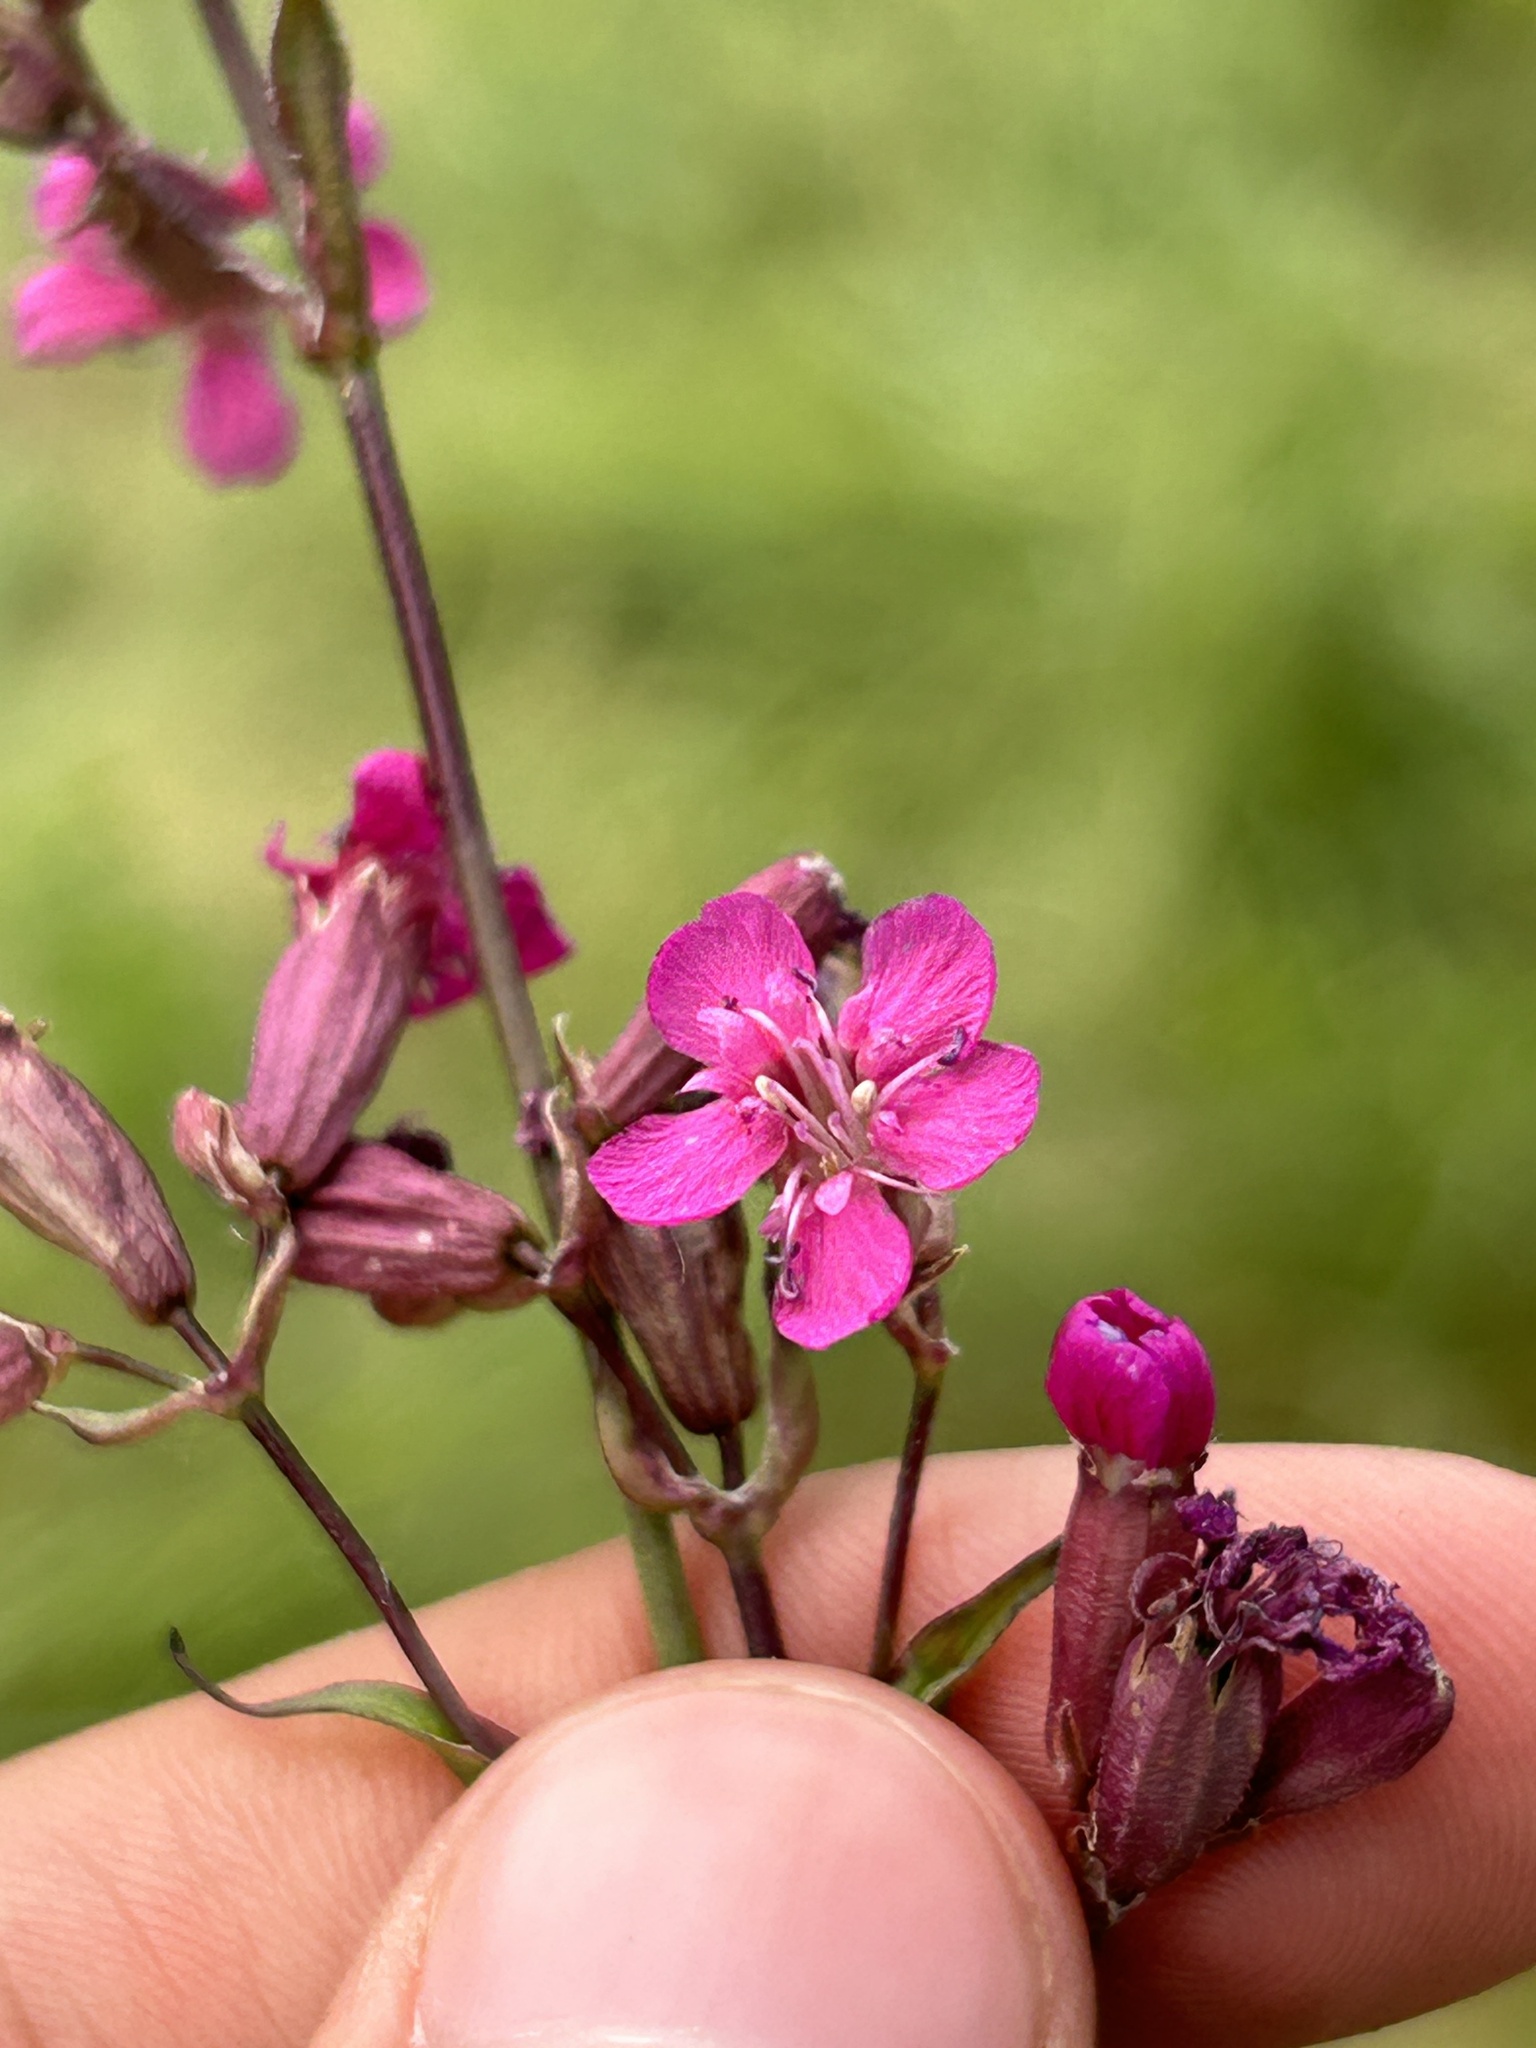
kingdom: Plantae
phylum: Tracheophyta
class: Magnoliopsida
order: Caryophyllales
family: Caryophyllaceae
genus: Viscaria
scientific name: Viscaria vulgaris
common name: Clammy campion
